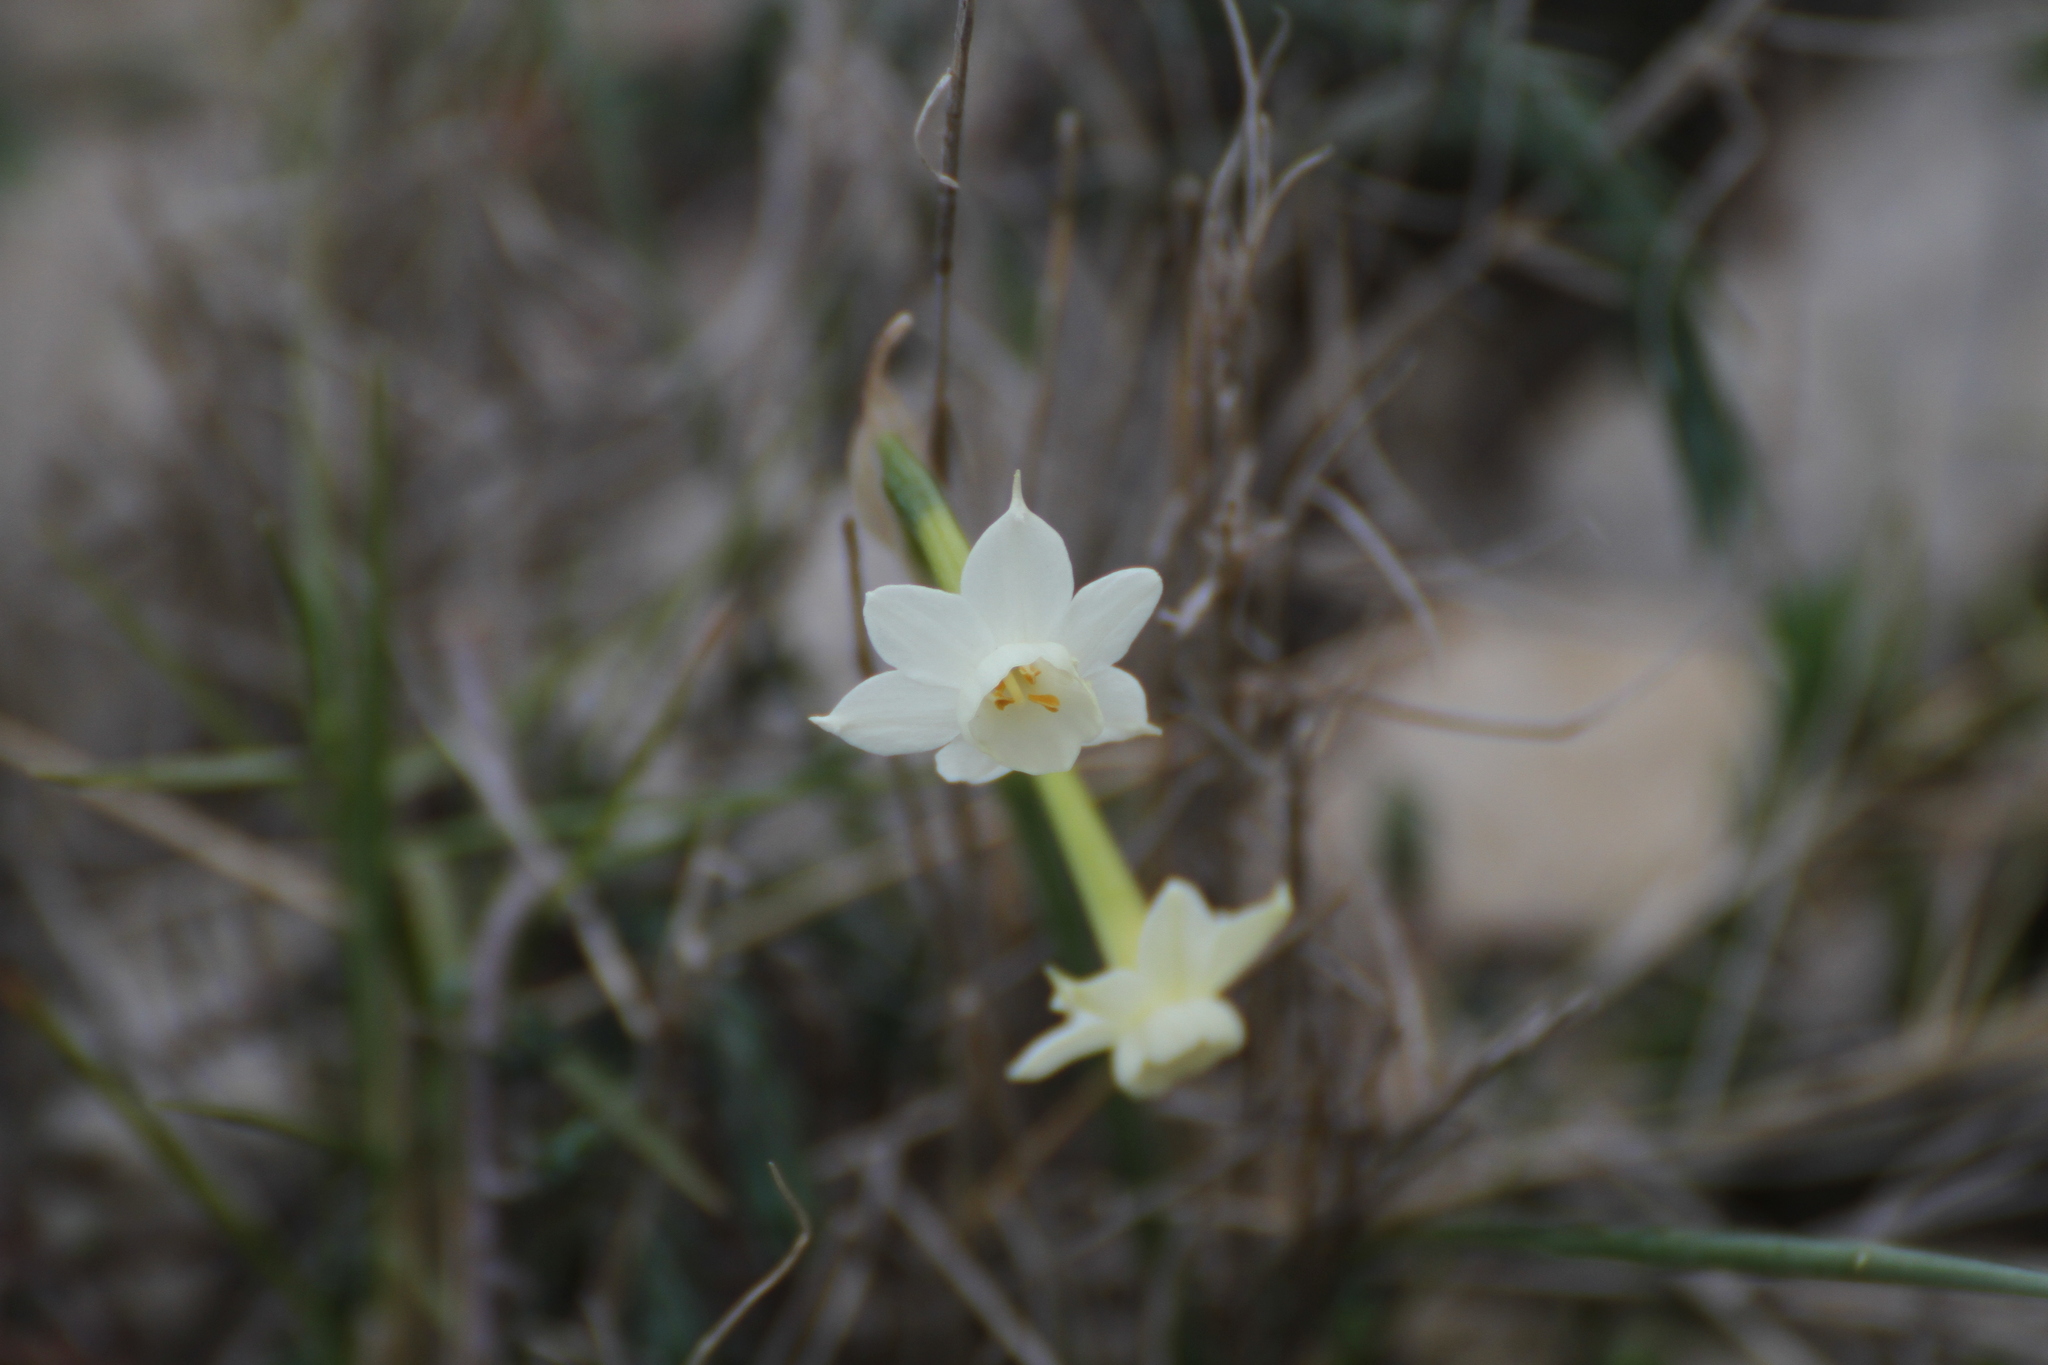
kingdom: Plantae
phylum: Tracheophyta
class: Liliopsida
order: Asparagales
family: Amaryllidaceae
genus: Narcissus
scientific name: Narcissus dubius
